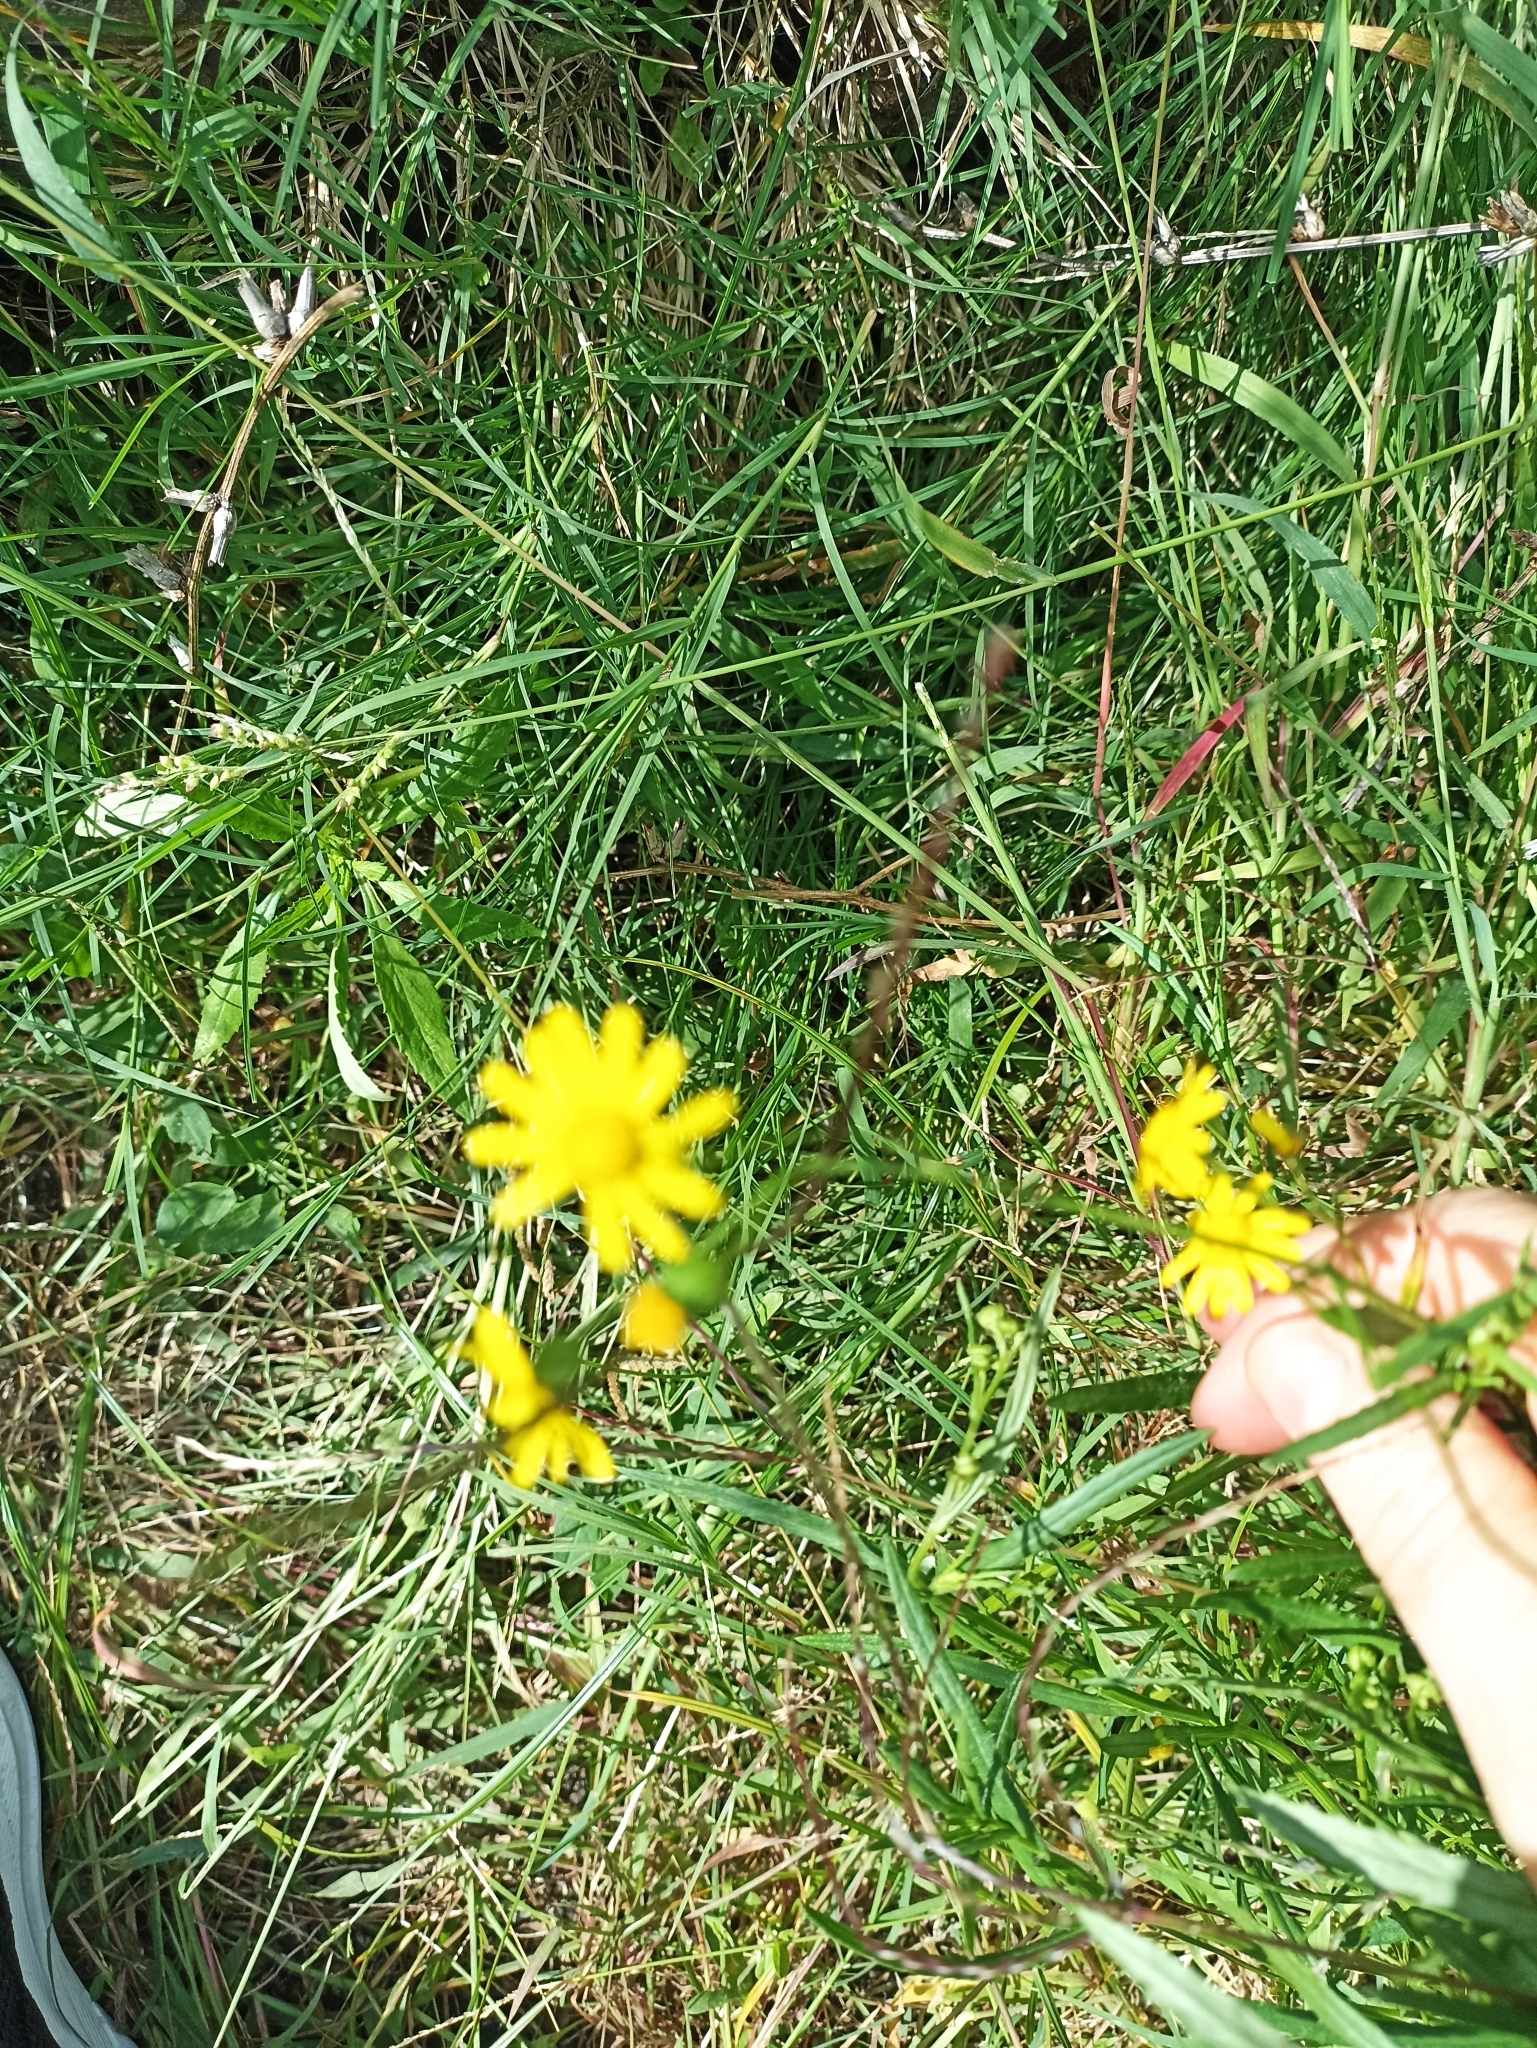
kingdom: Plantae
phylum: Tracheophyta
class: Magnoliopsida
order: Asterales
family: Asteraceae
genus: Senecio
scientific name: Senecio madagascariensis
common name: Madagascar ragwort
